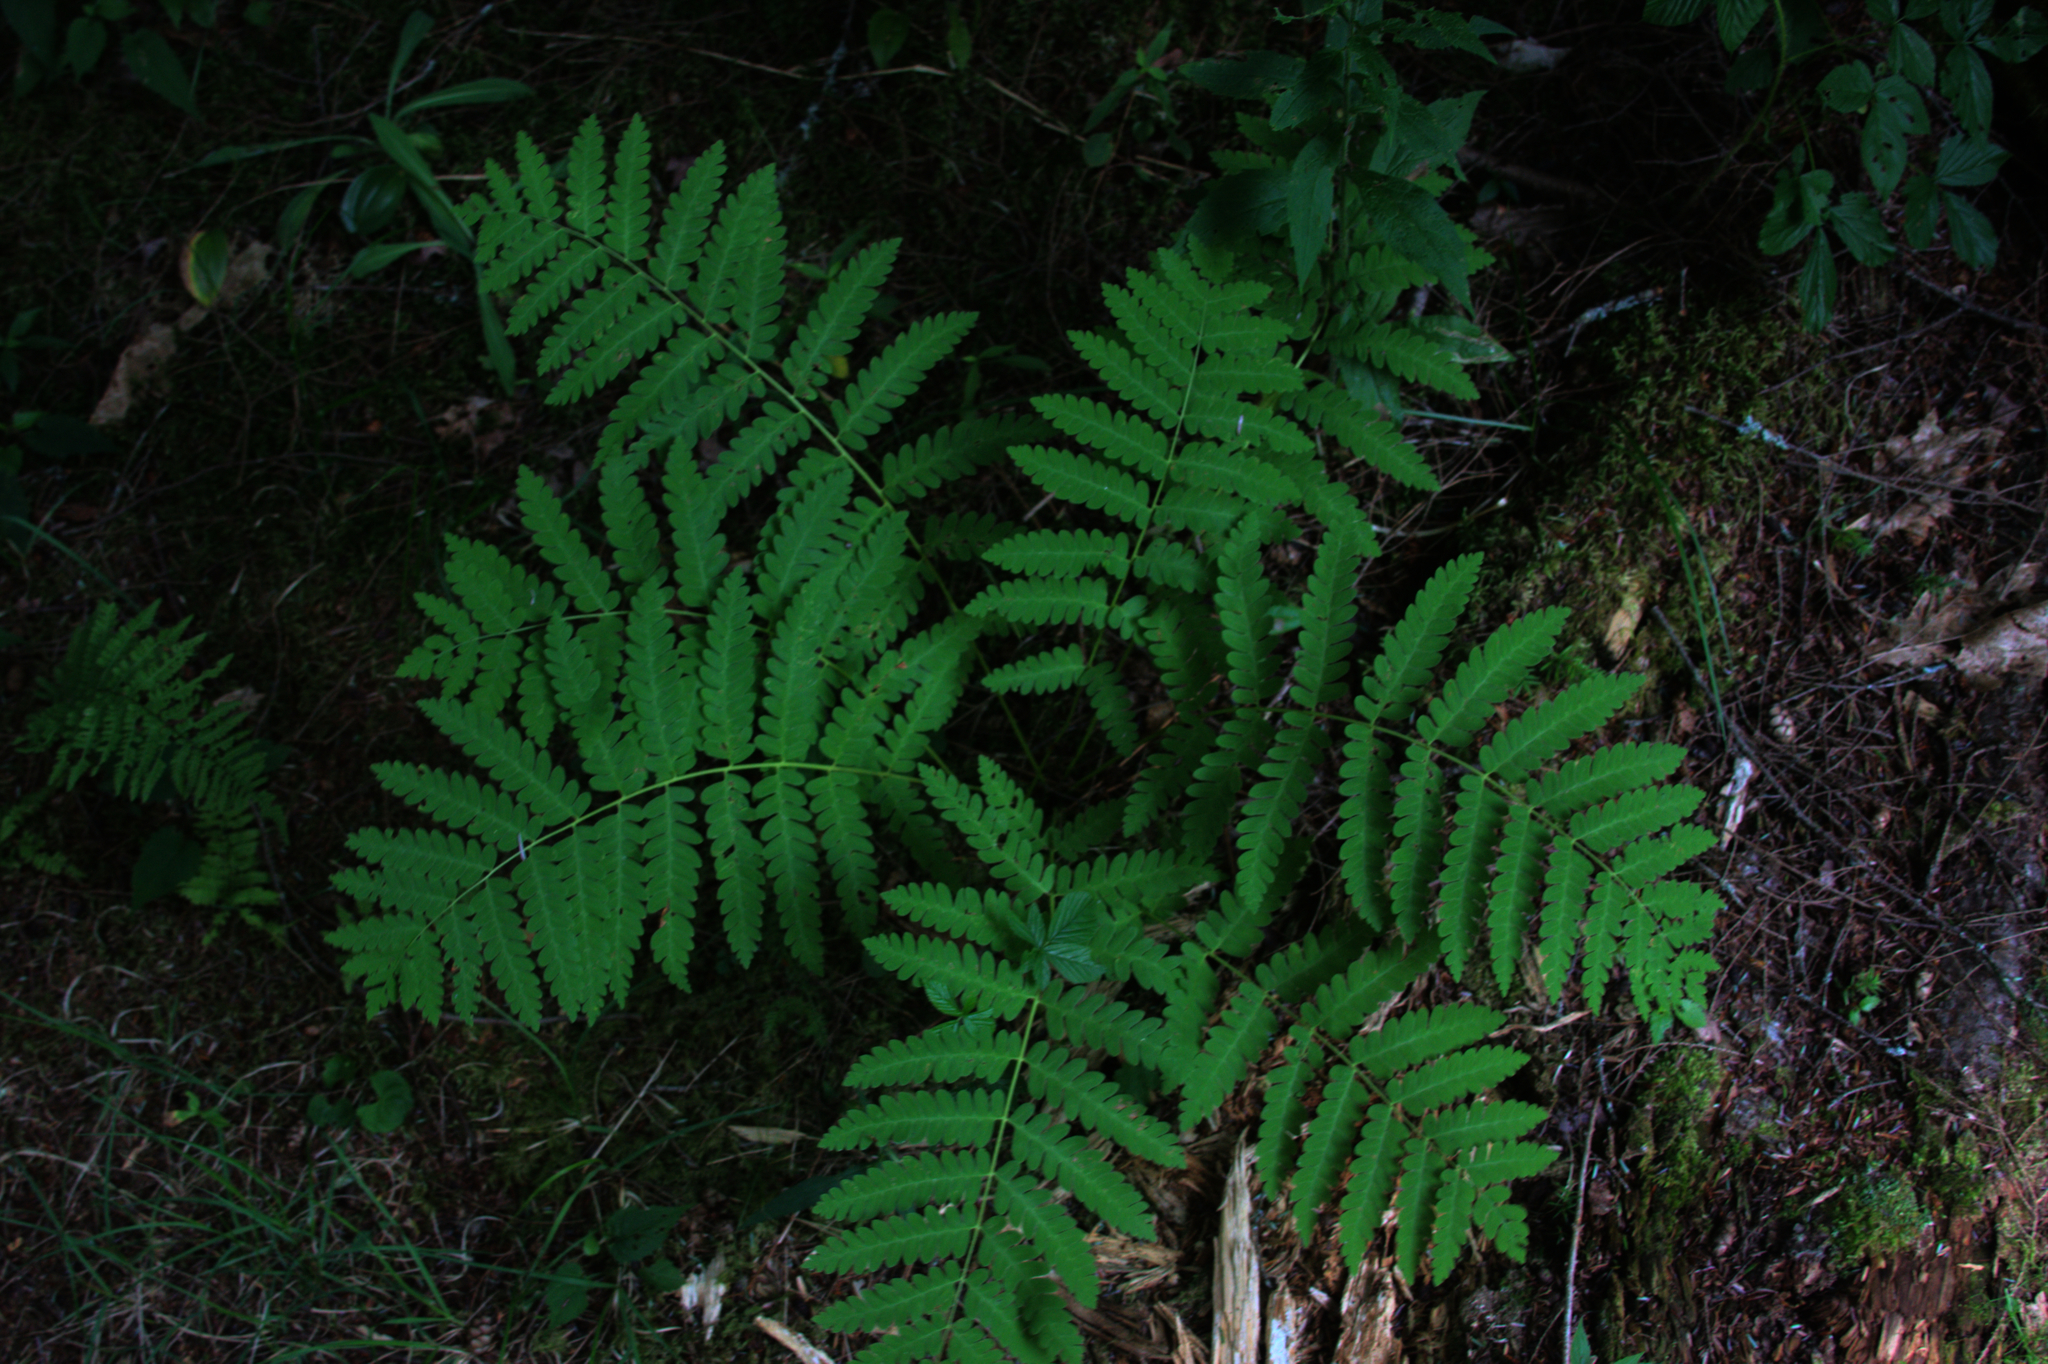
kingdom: Plantae
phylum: Tracheophyta
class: Polypodiopsida
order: Osmundales
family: Osmundaceae
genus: Claytosmunda
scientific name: Claytosmunda claytoniana
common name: Clayton's fern
